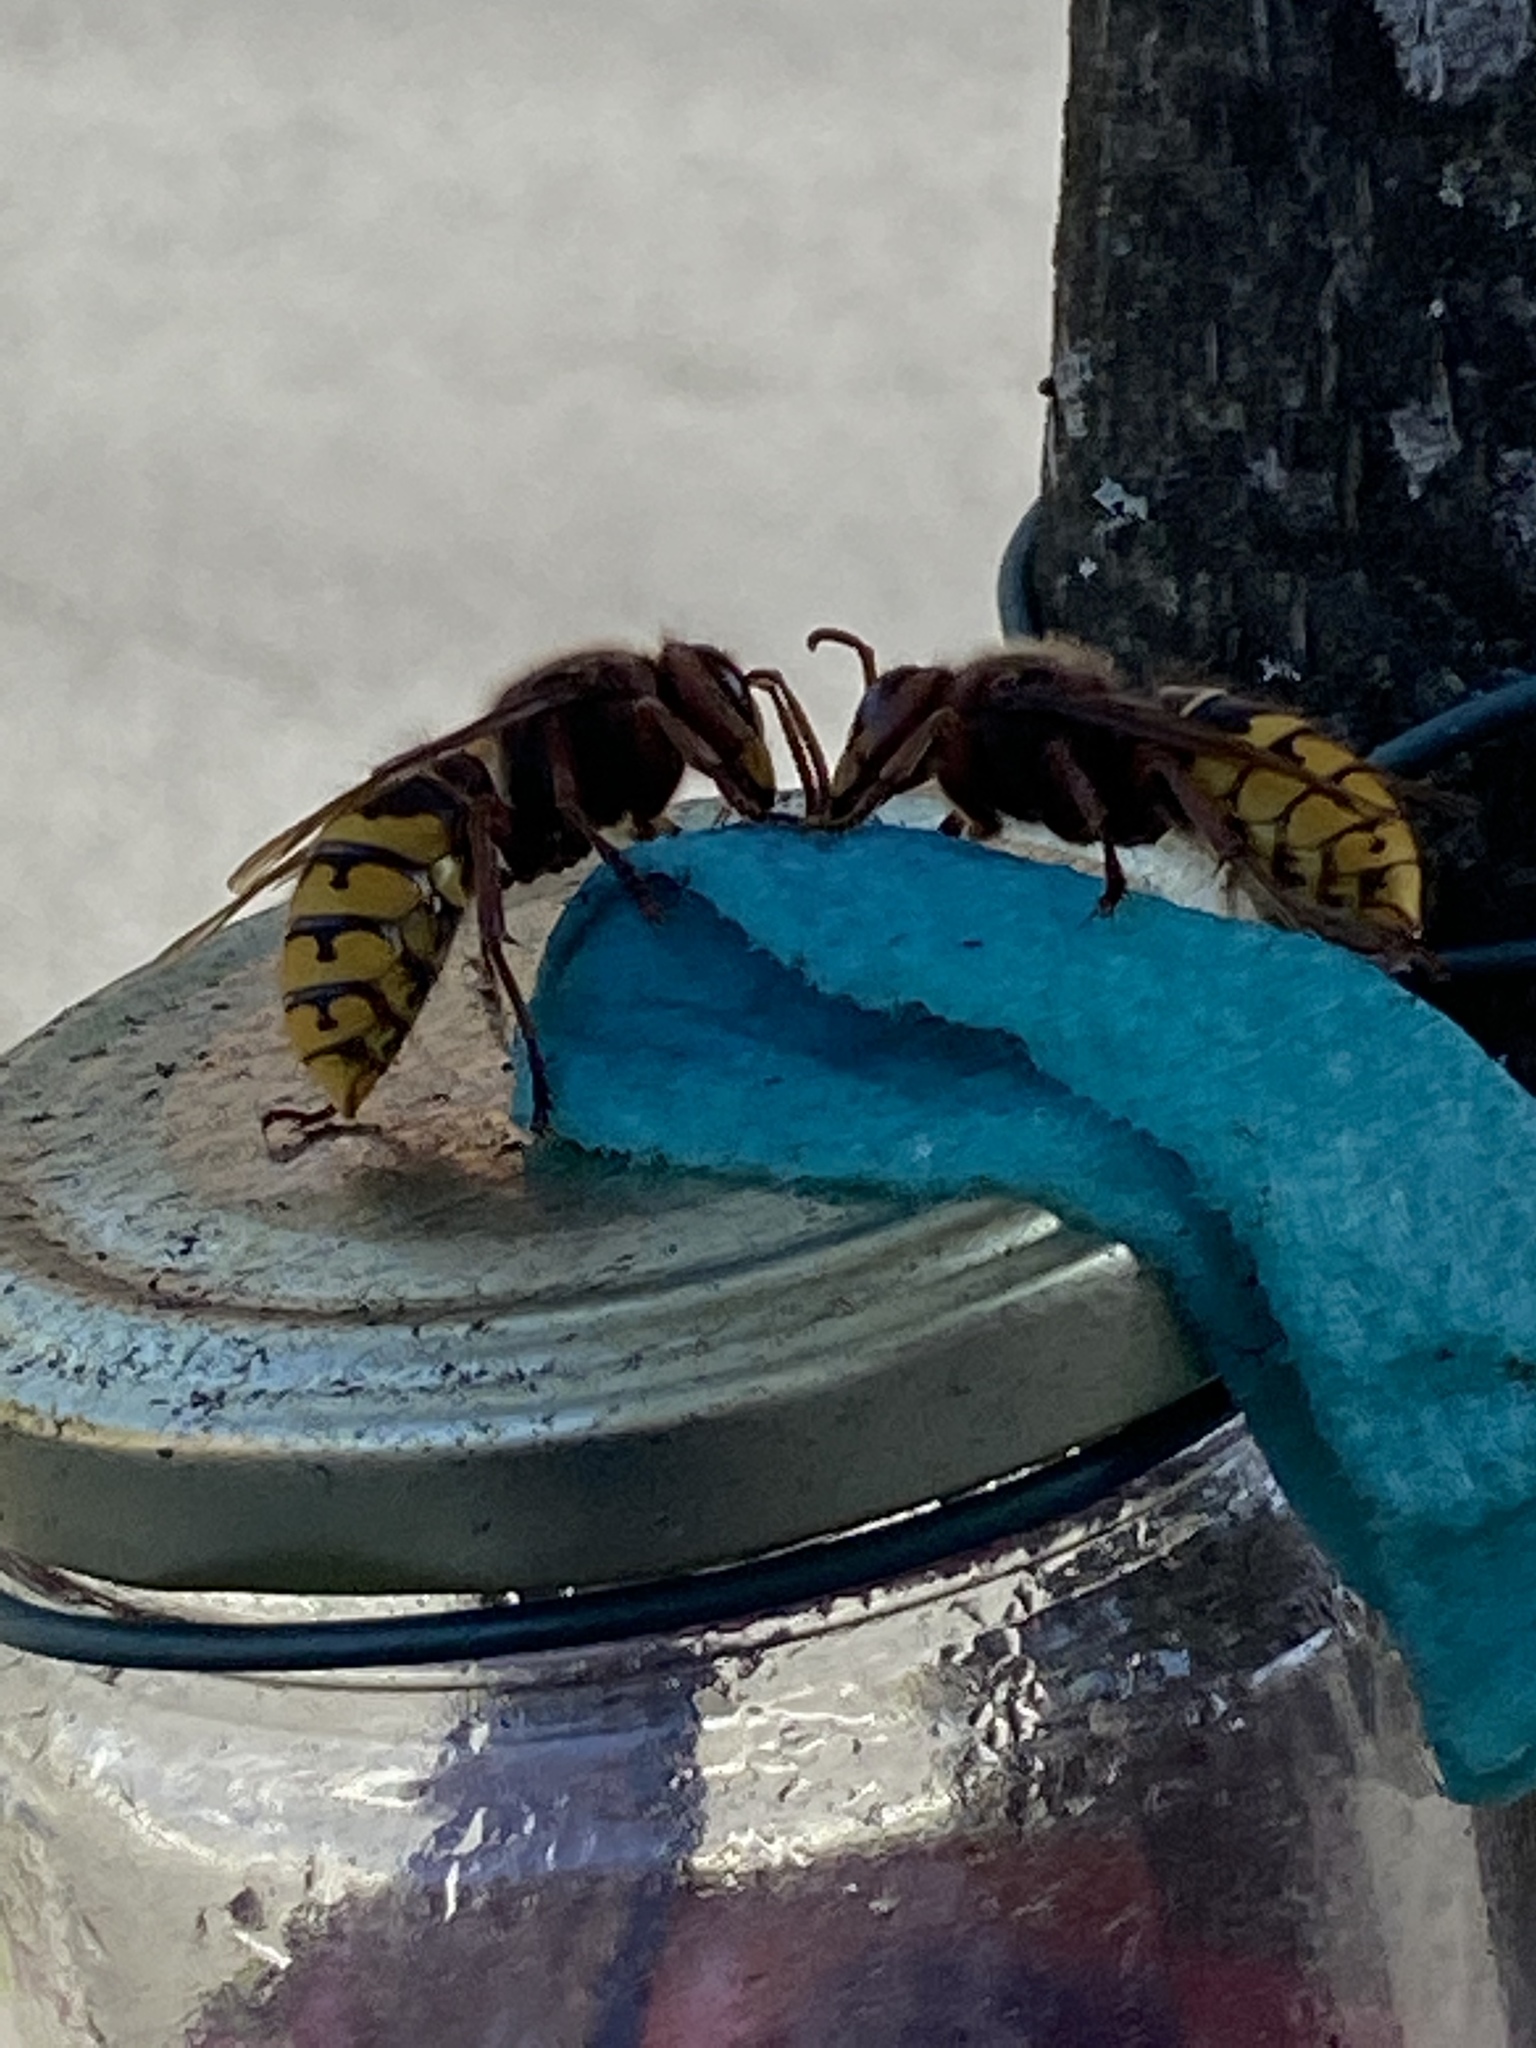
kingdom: Animalia
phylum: Arthropoda
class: Insecta
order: Hymenoptera
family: Vespidae
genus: Vespa
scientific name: Vespa crabro
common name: Hornet
